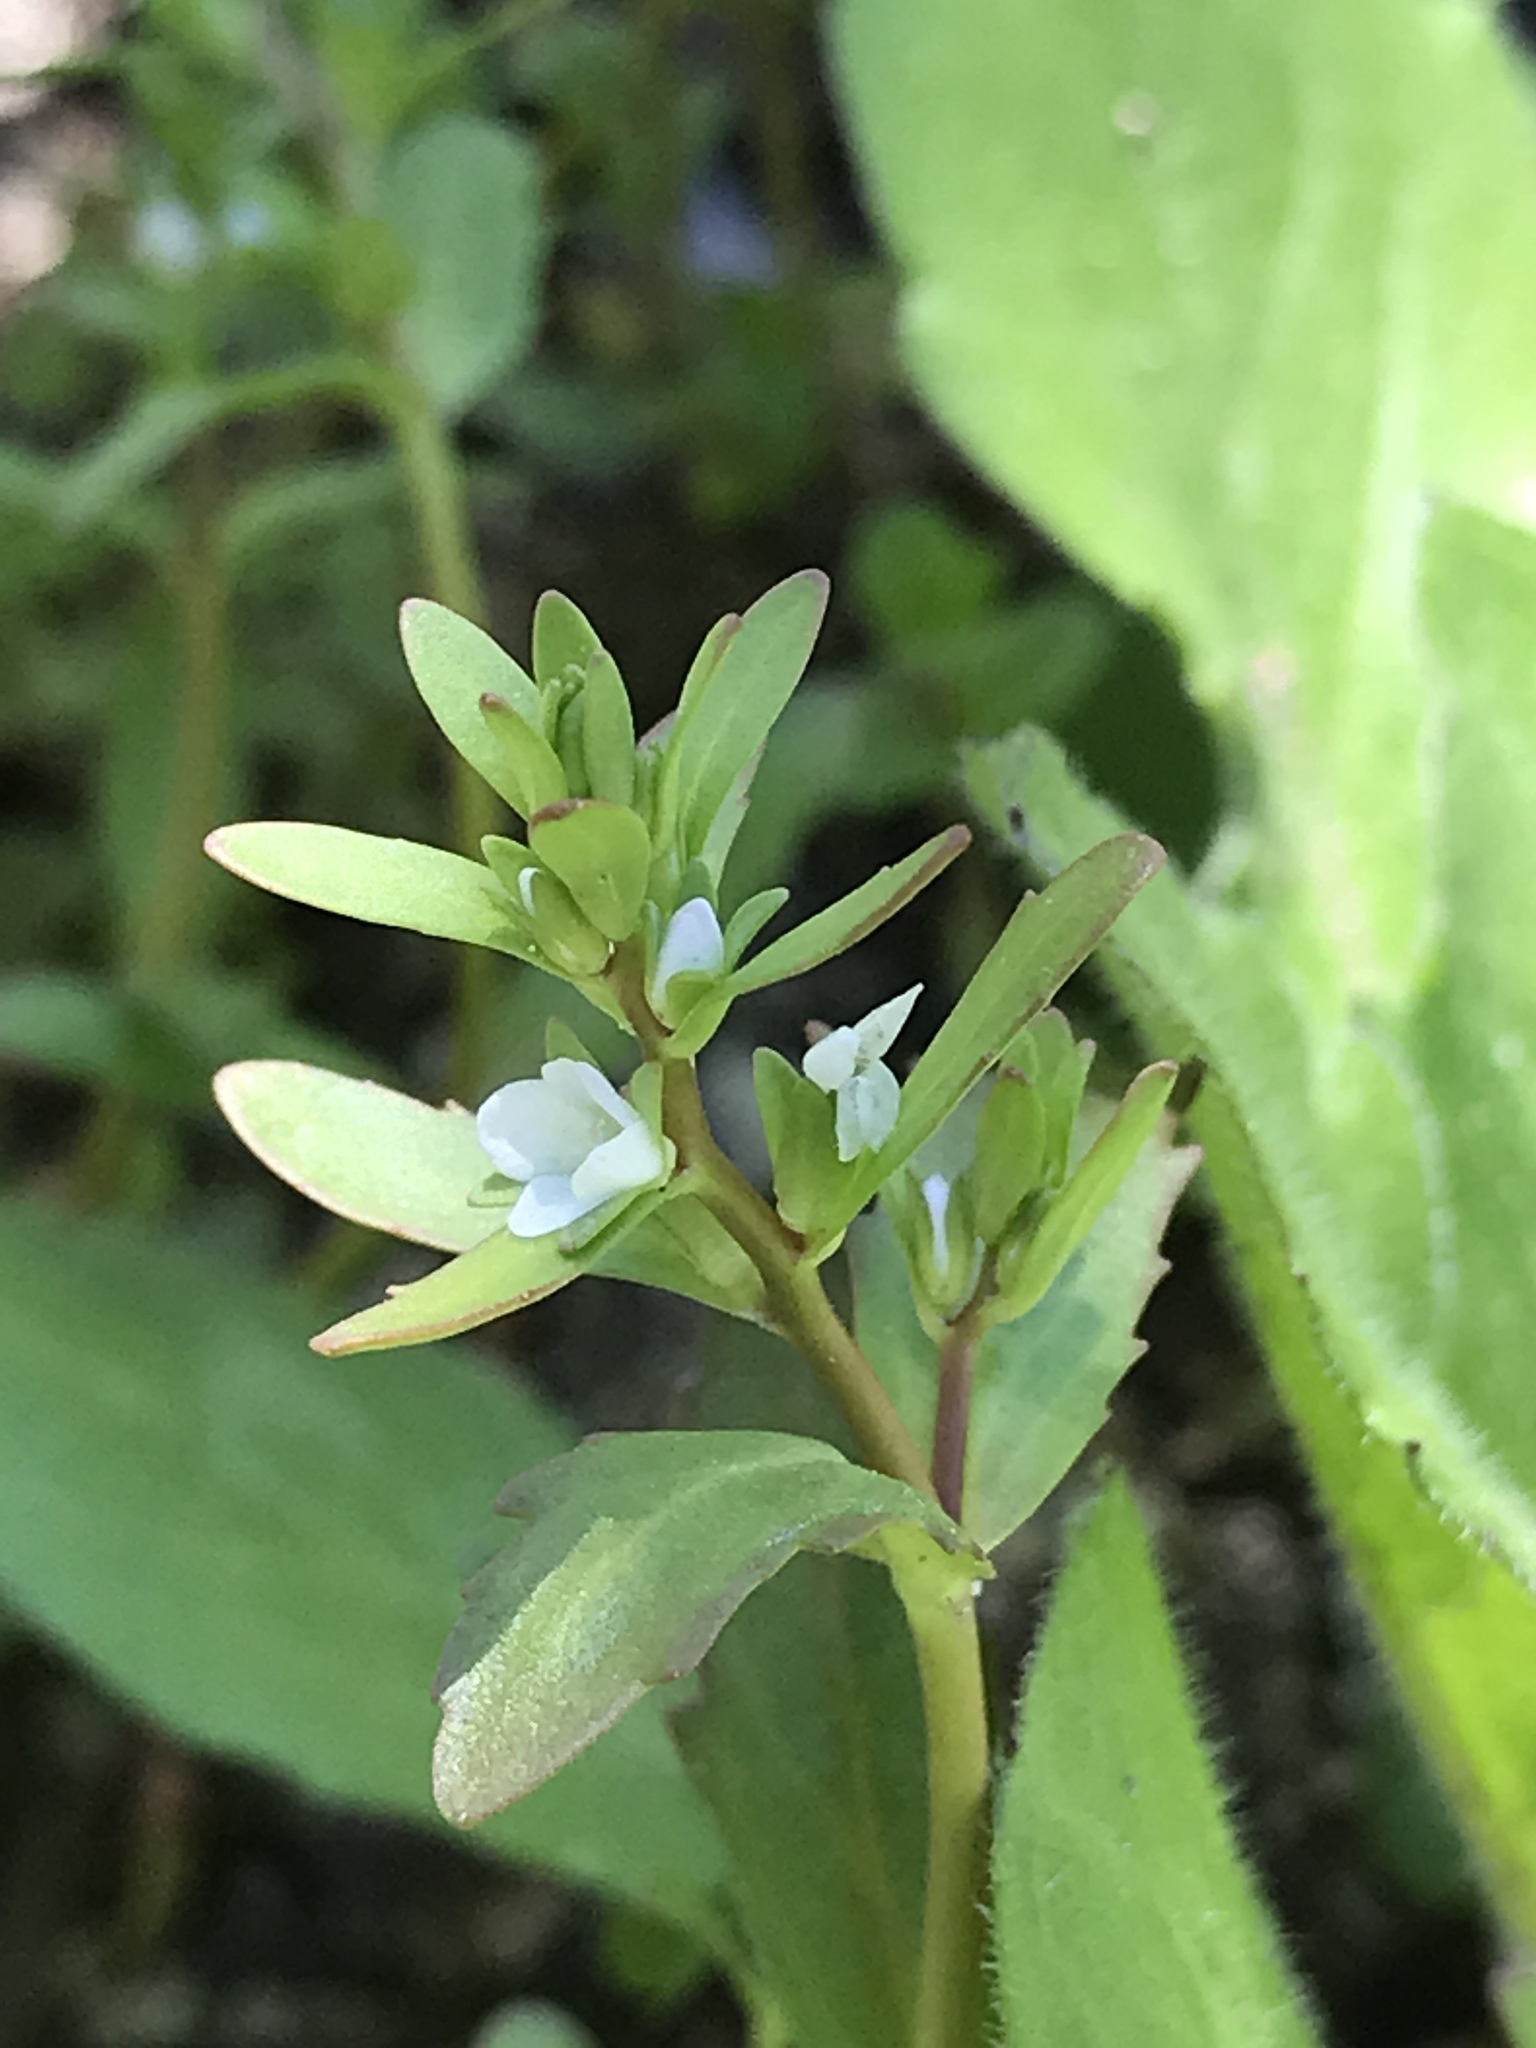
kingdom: Plantae
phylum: Tracheophyta
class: Magnoliopsida
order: Lamiales
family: Plantaginaceae
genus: Veronica
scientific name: Veronica peregrina
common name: Neckweed
